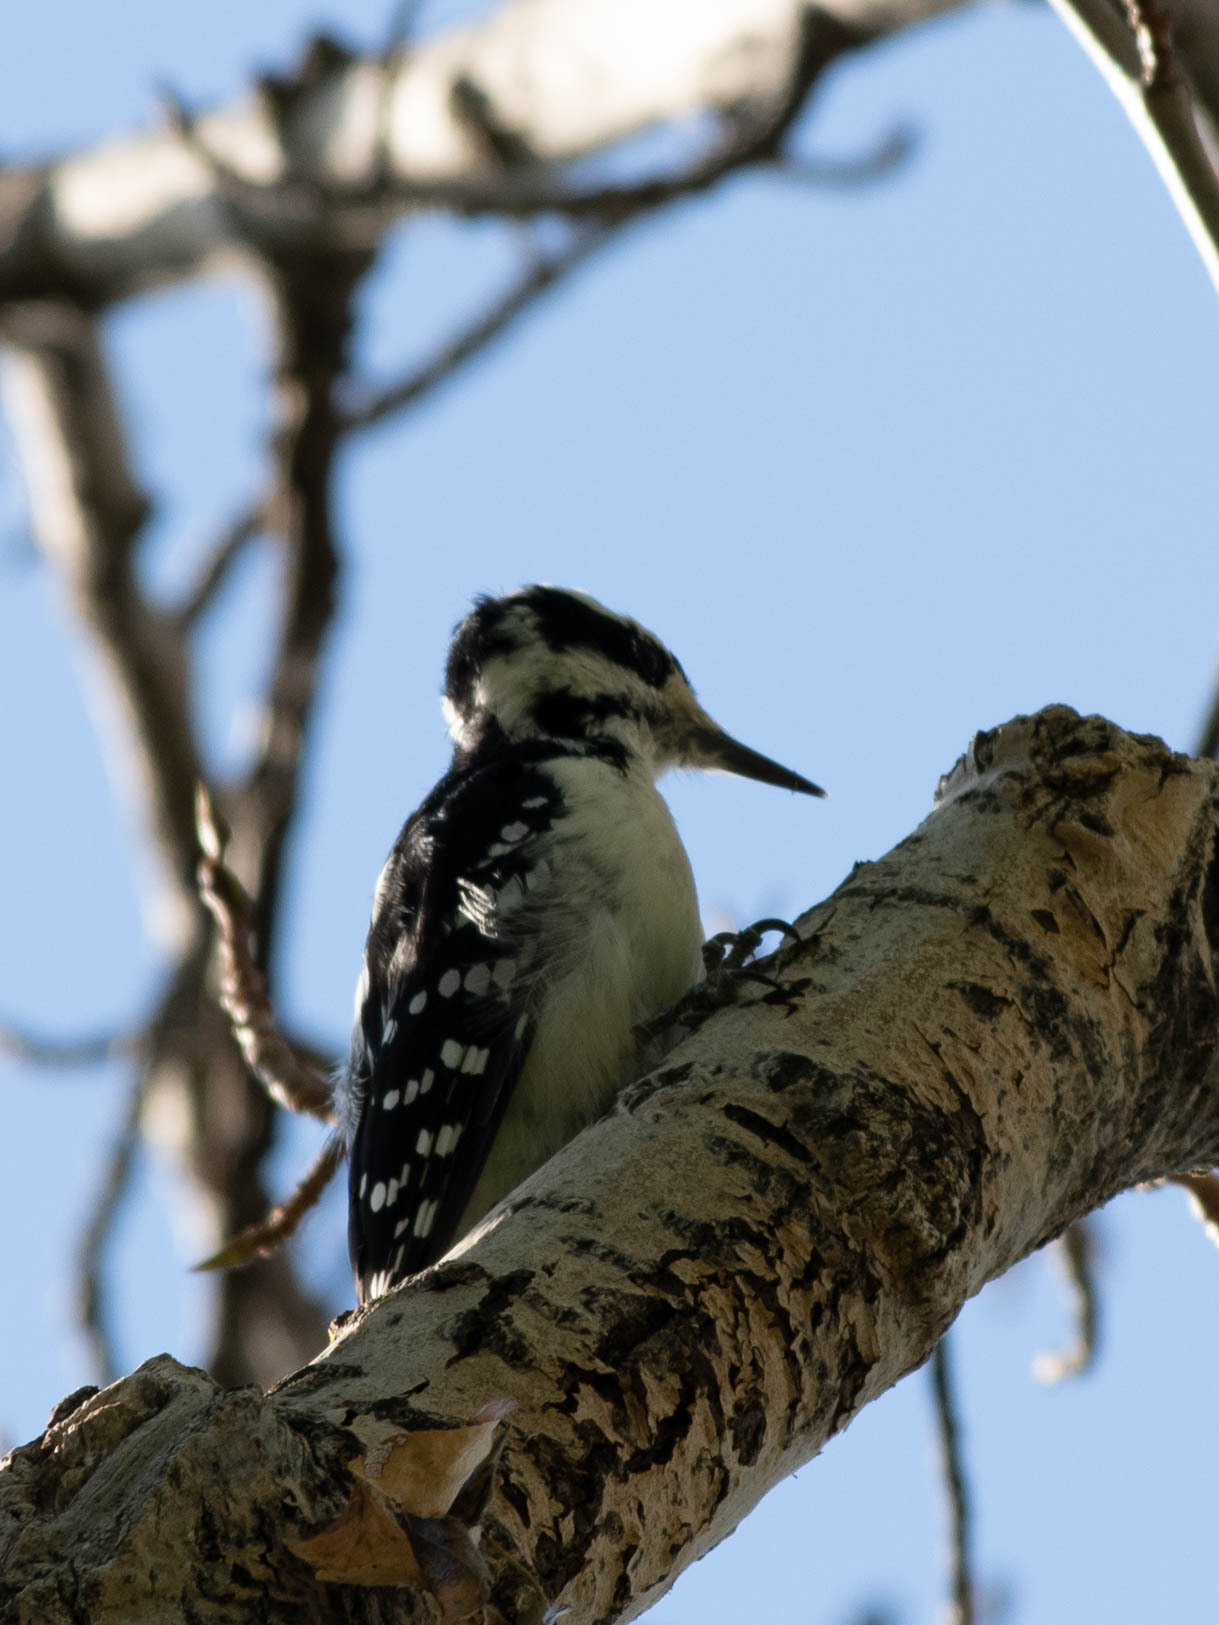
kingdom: Animalia
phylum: Chordata
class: Aves
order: Piciformes
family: Picidae
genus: Leuconotopicus
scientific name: Leuconotopicus villosus
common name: Hairy woodpecker
